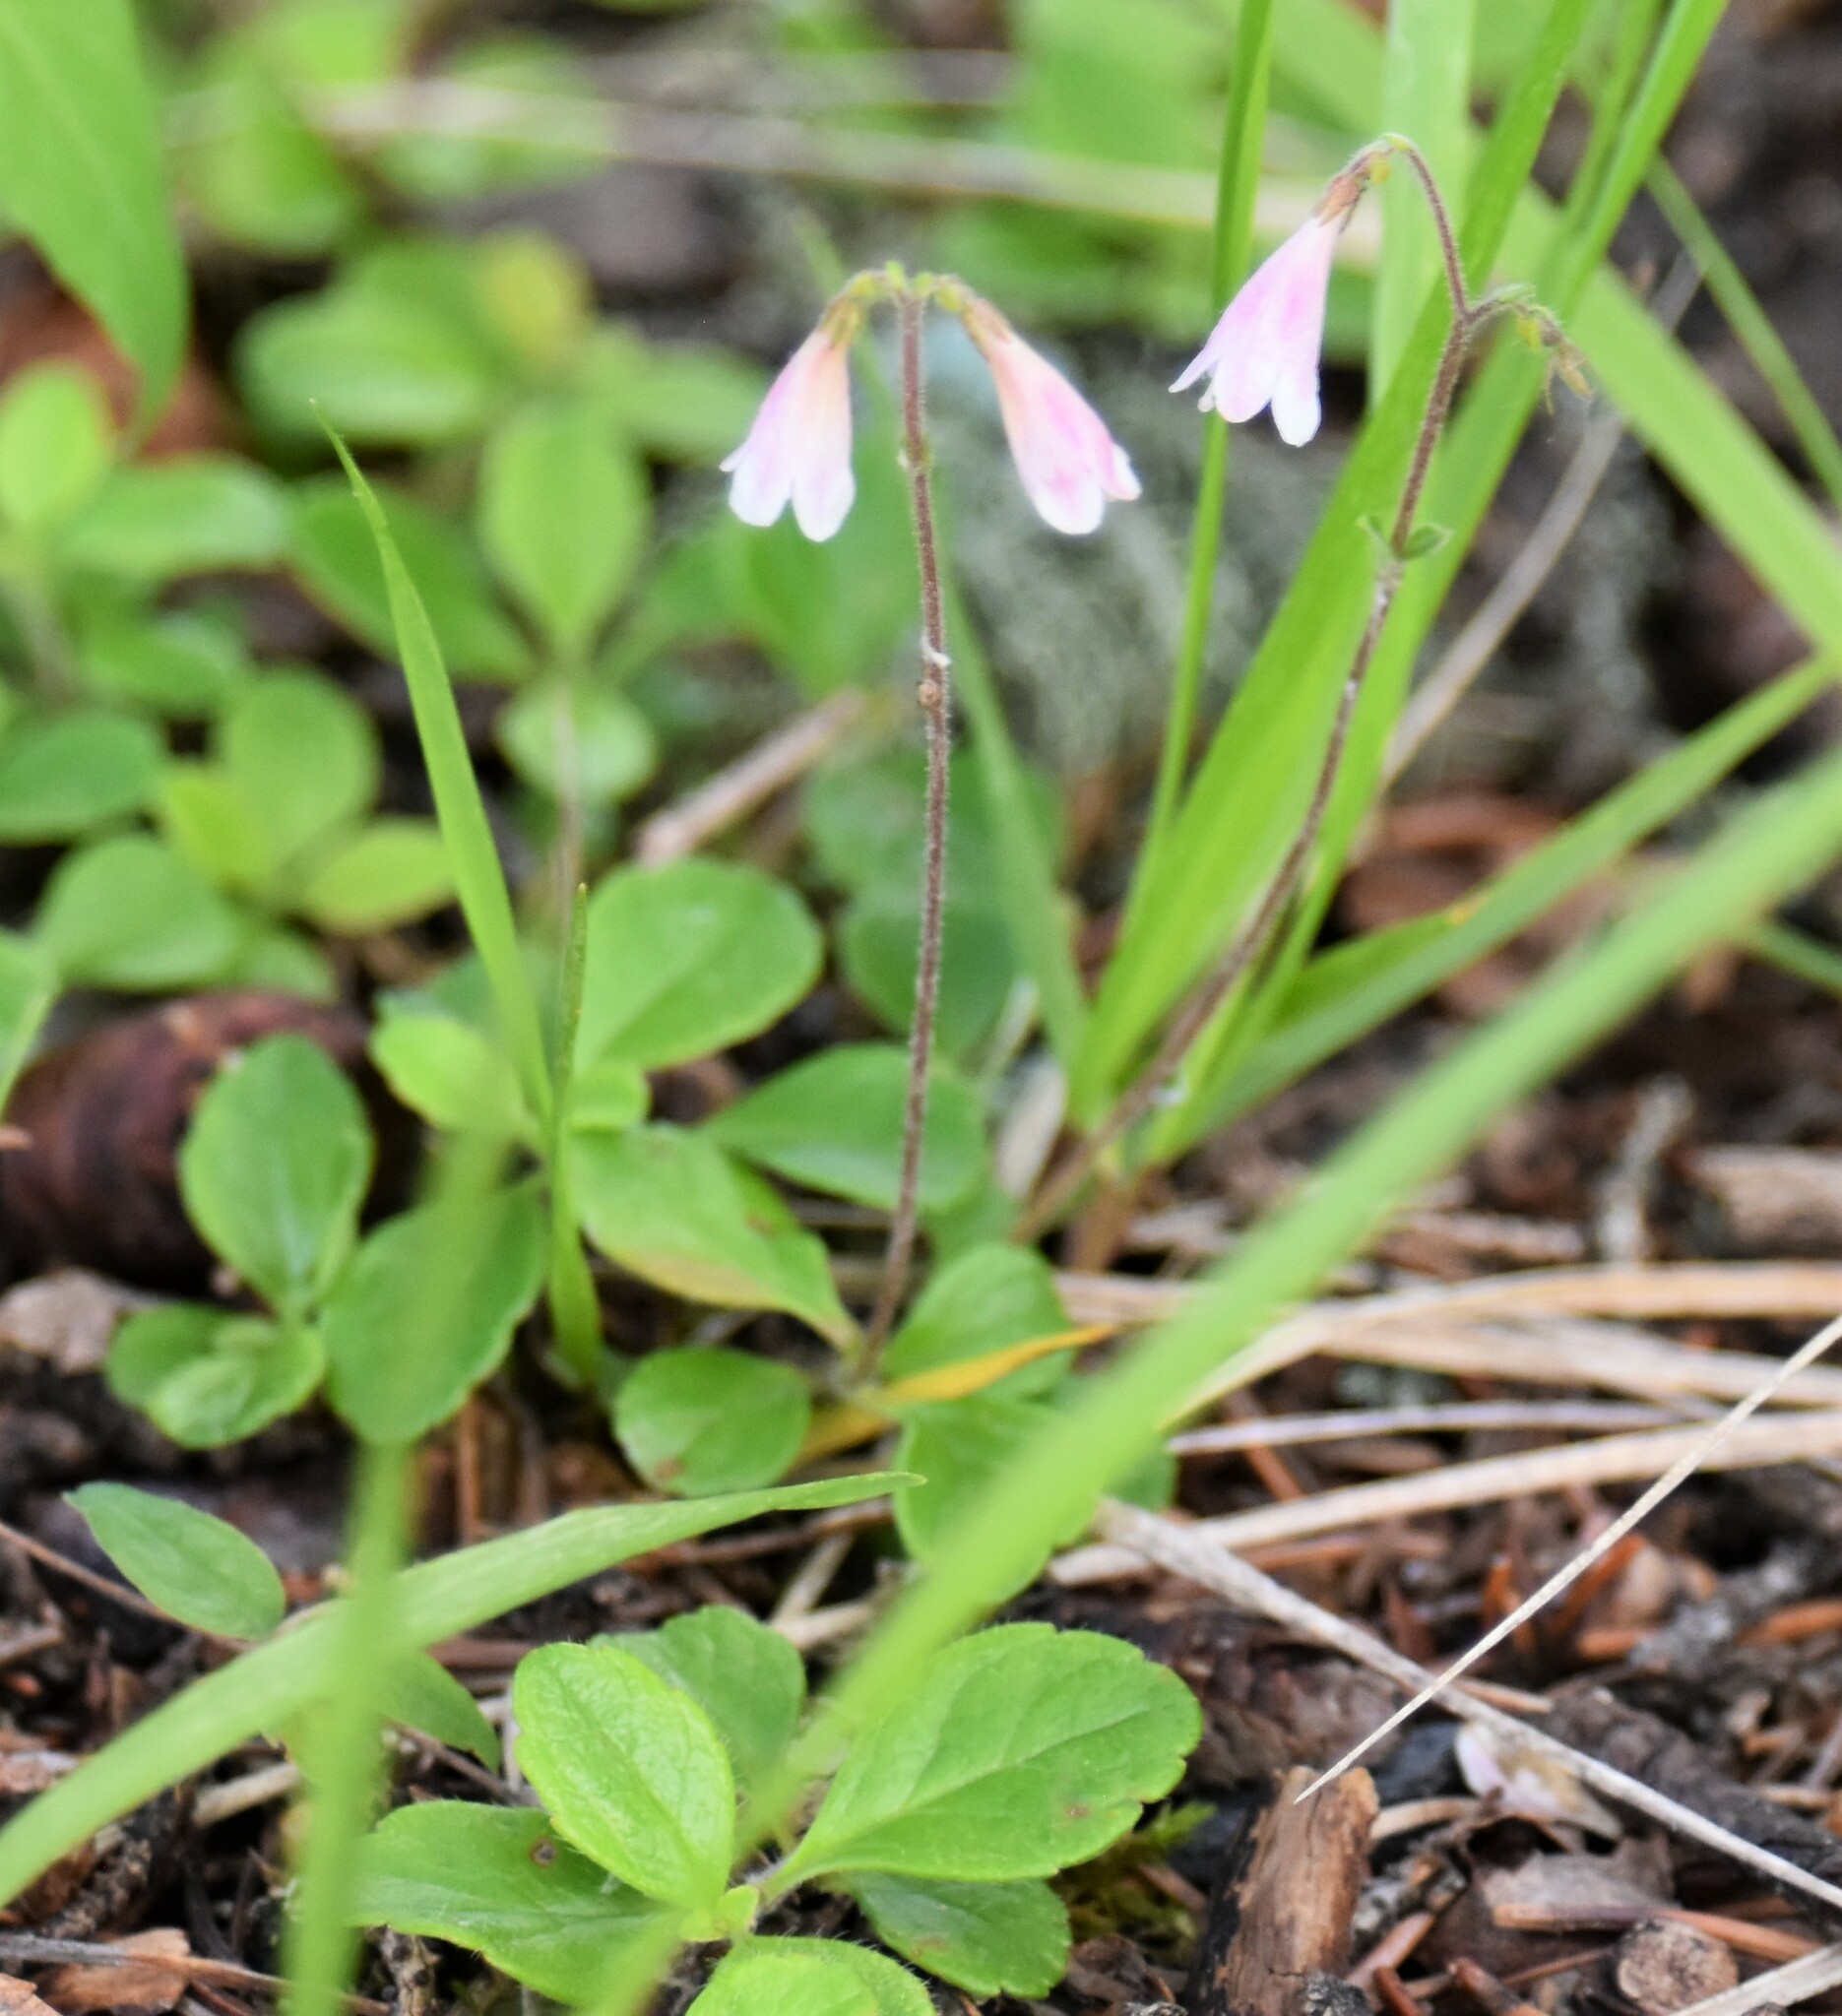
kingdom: Plantae
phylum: Tracheophyta
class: Magnoliopsida
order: Dipsacales
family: Caprifoliaceae
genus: Linnaea
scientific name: Linnaea borealis
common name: Twinflower
